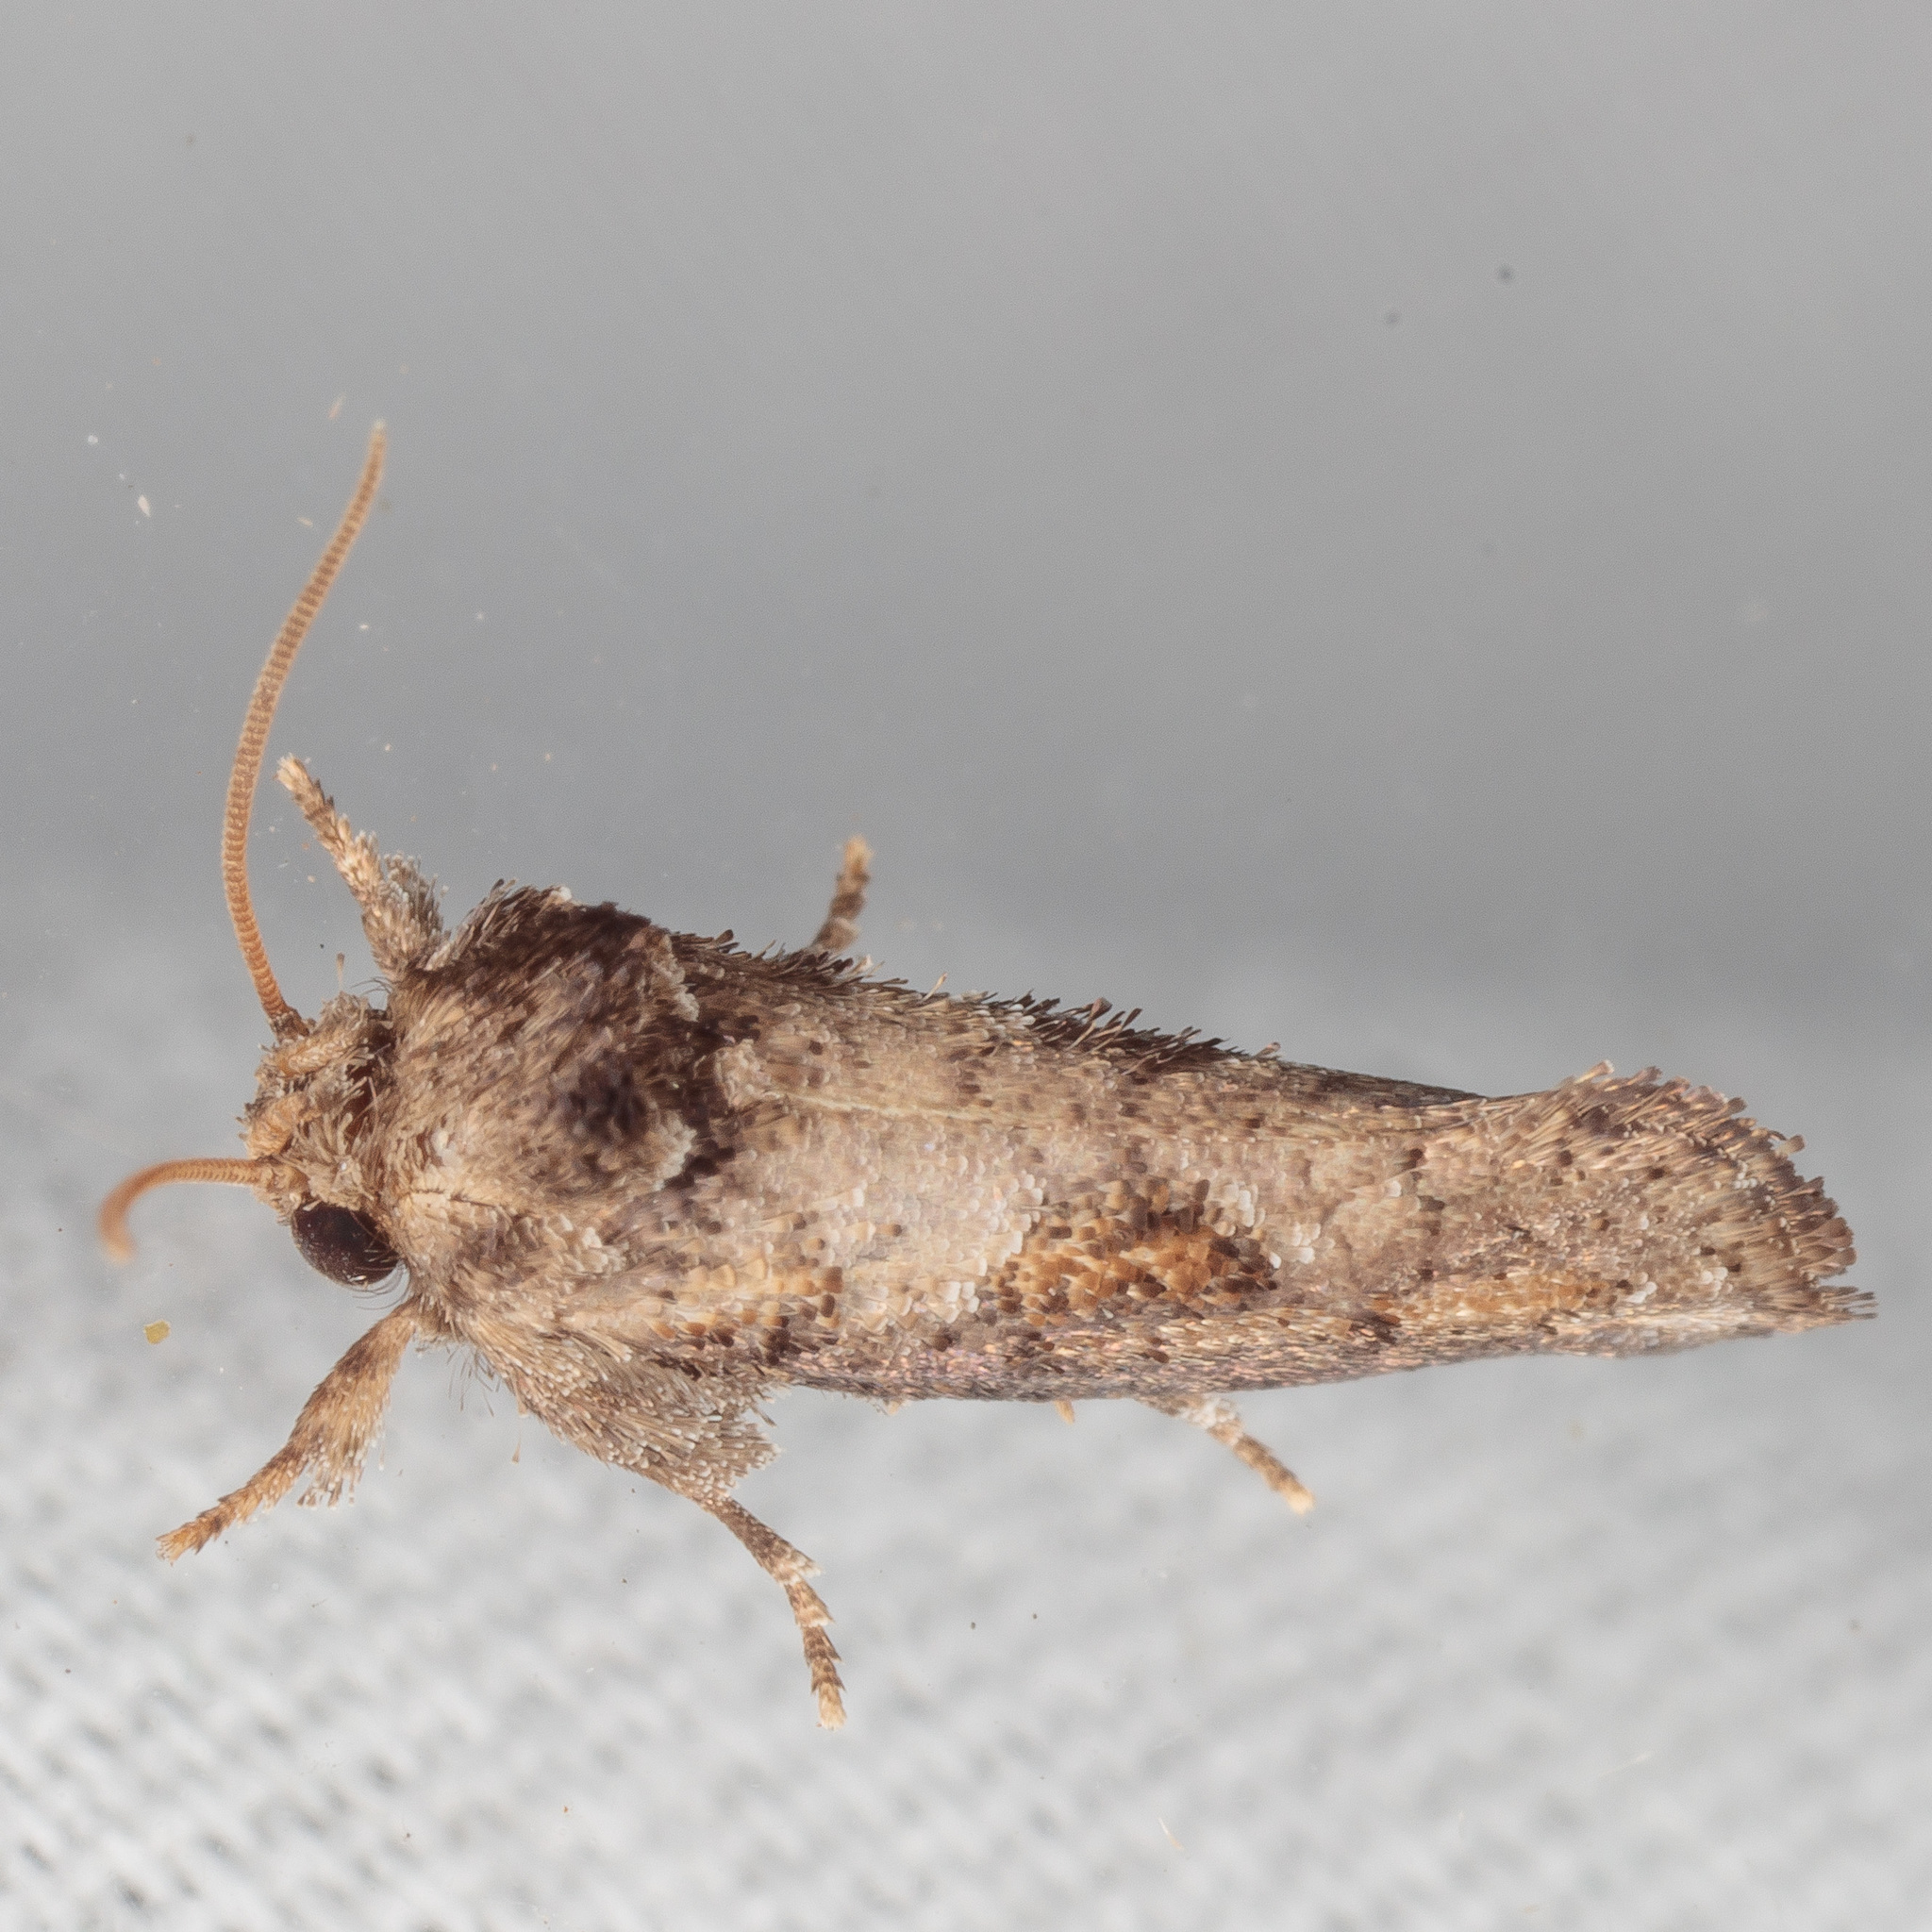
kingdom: Animalia
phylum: Arthropoda
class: Insecta
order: Lepidoptera
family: Tineidae
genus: Acrolophus
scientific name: Acrolophus piger
